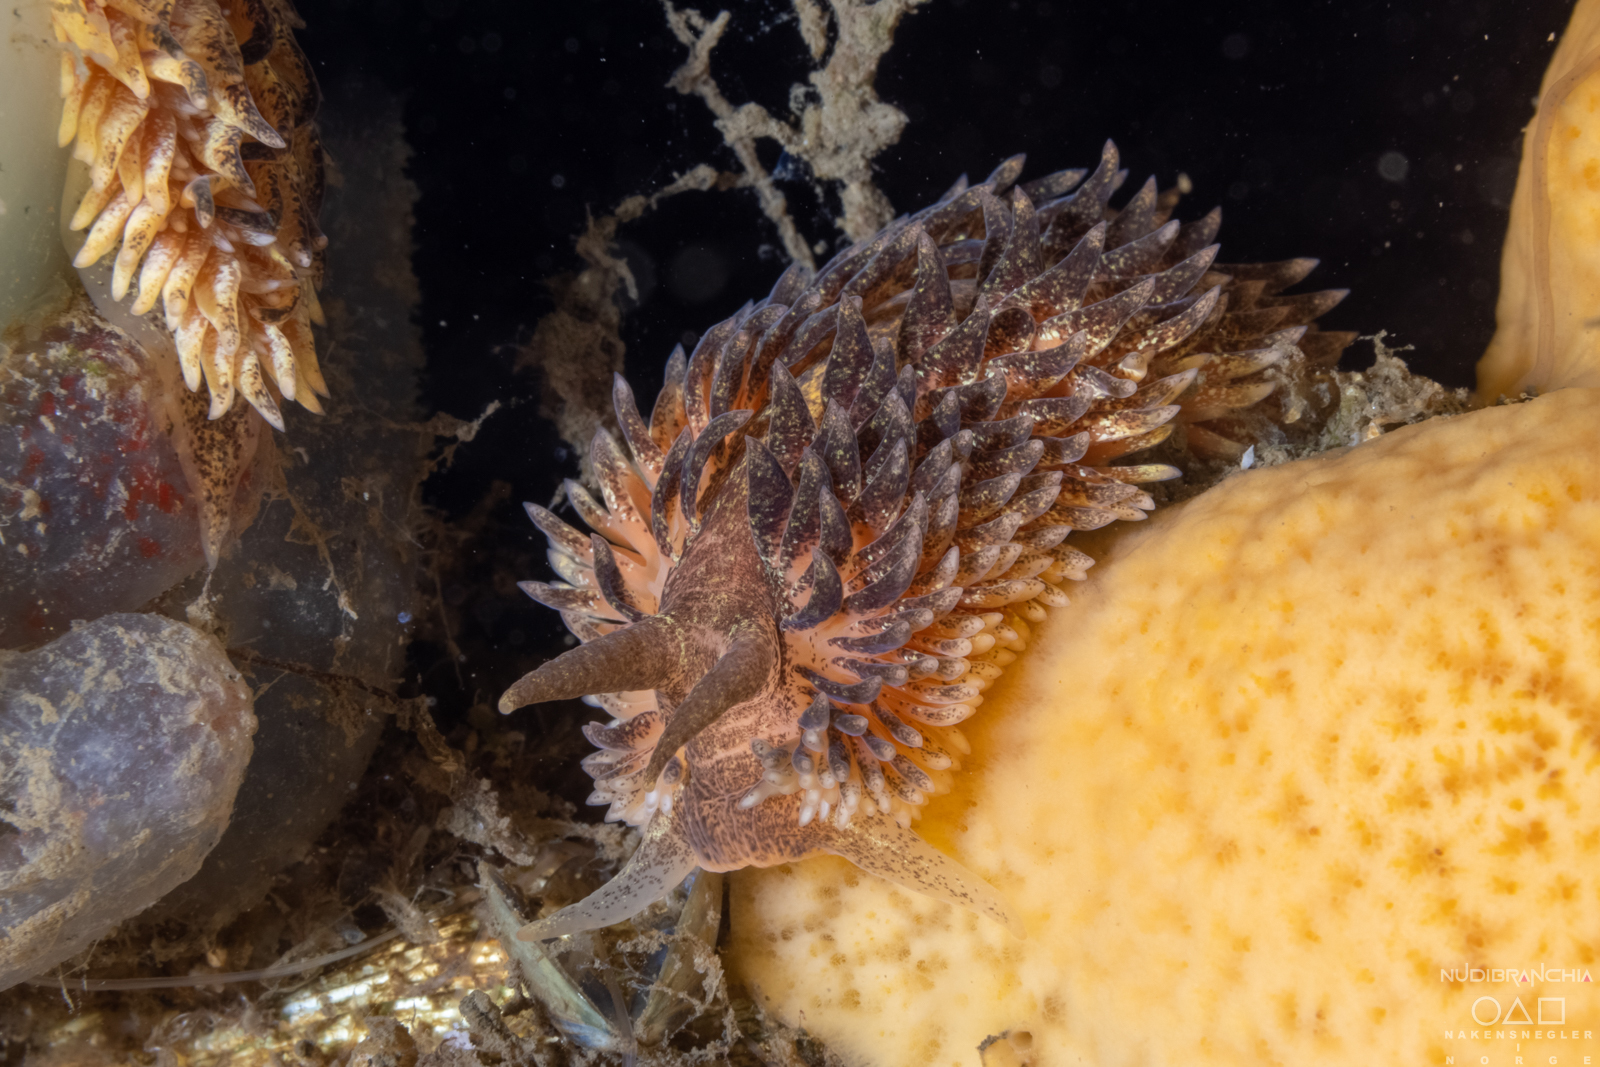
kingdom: Animalia
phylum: Mollusca
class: Gastropoda
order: Nudibranchia
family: Aeolidiidae
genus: Aeolidia
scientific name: Aeolidia papillosa
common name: Common grey sea slug
